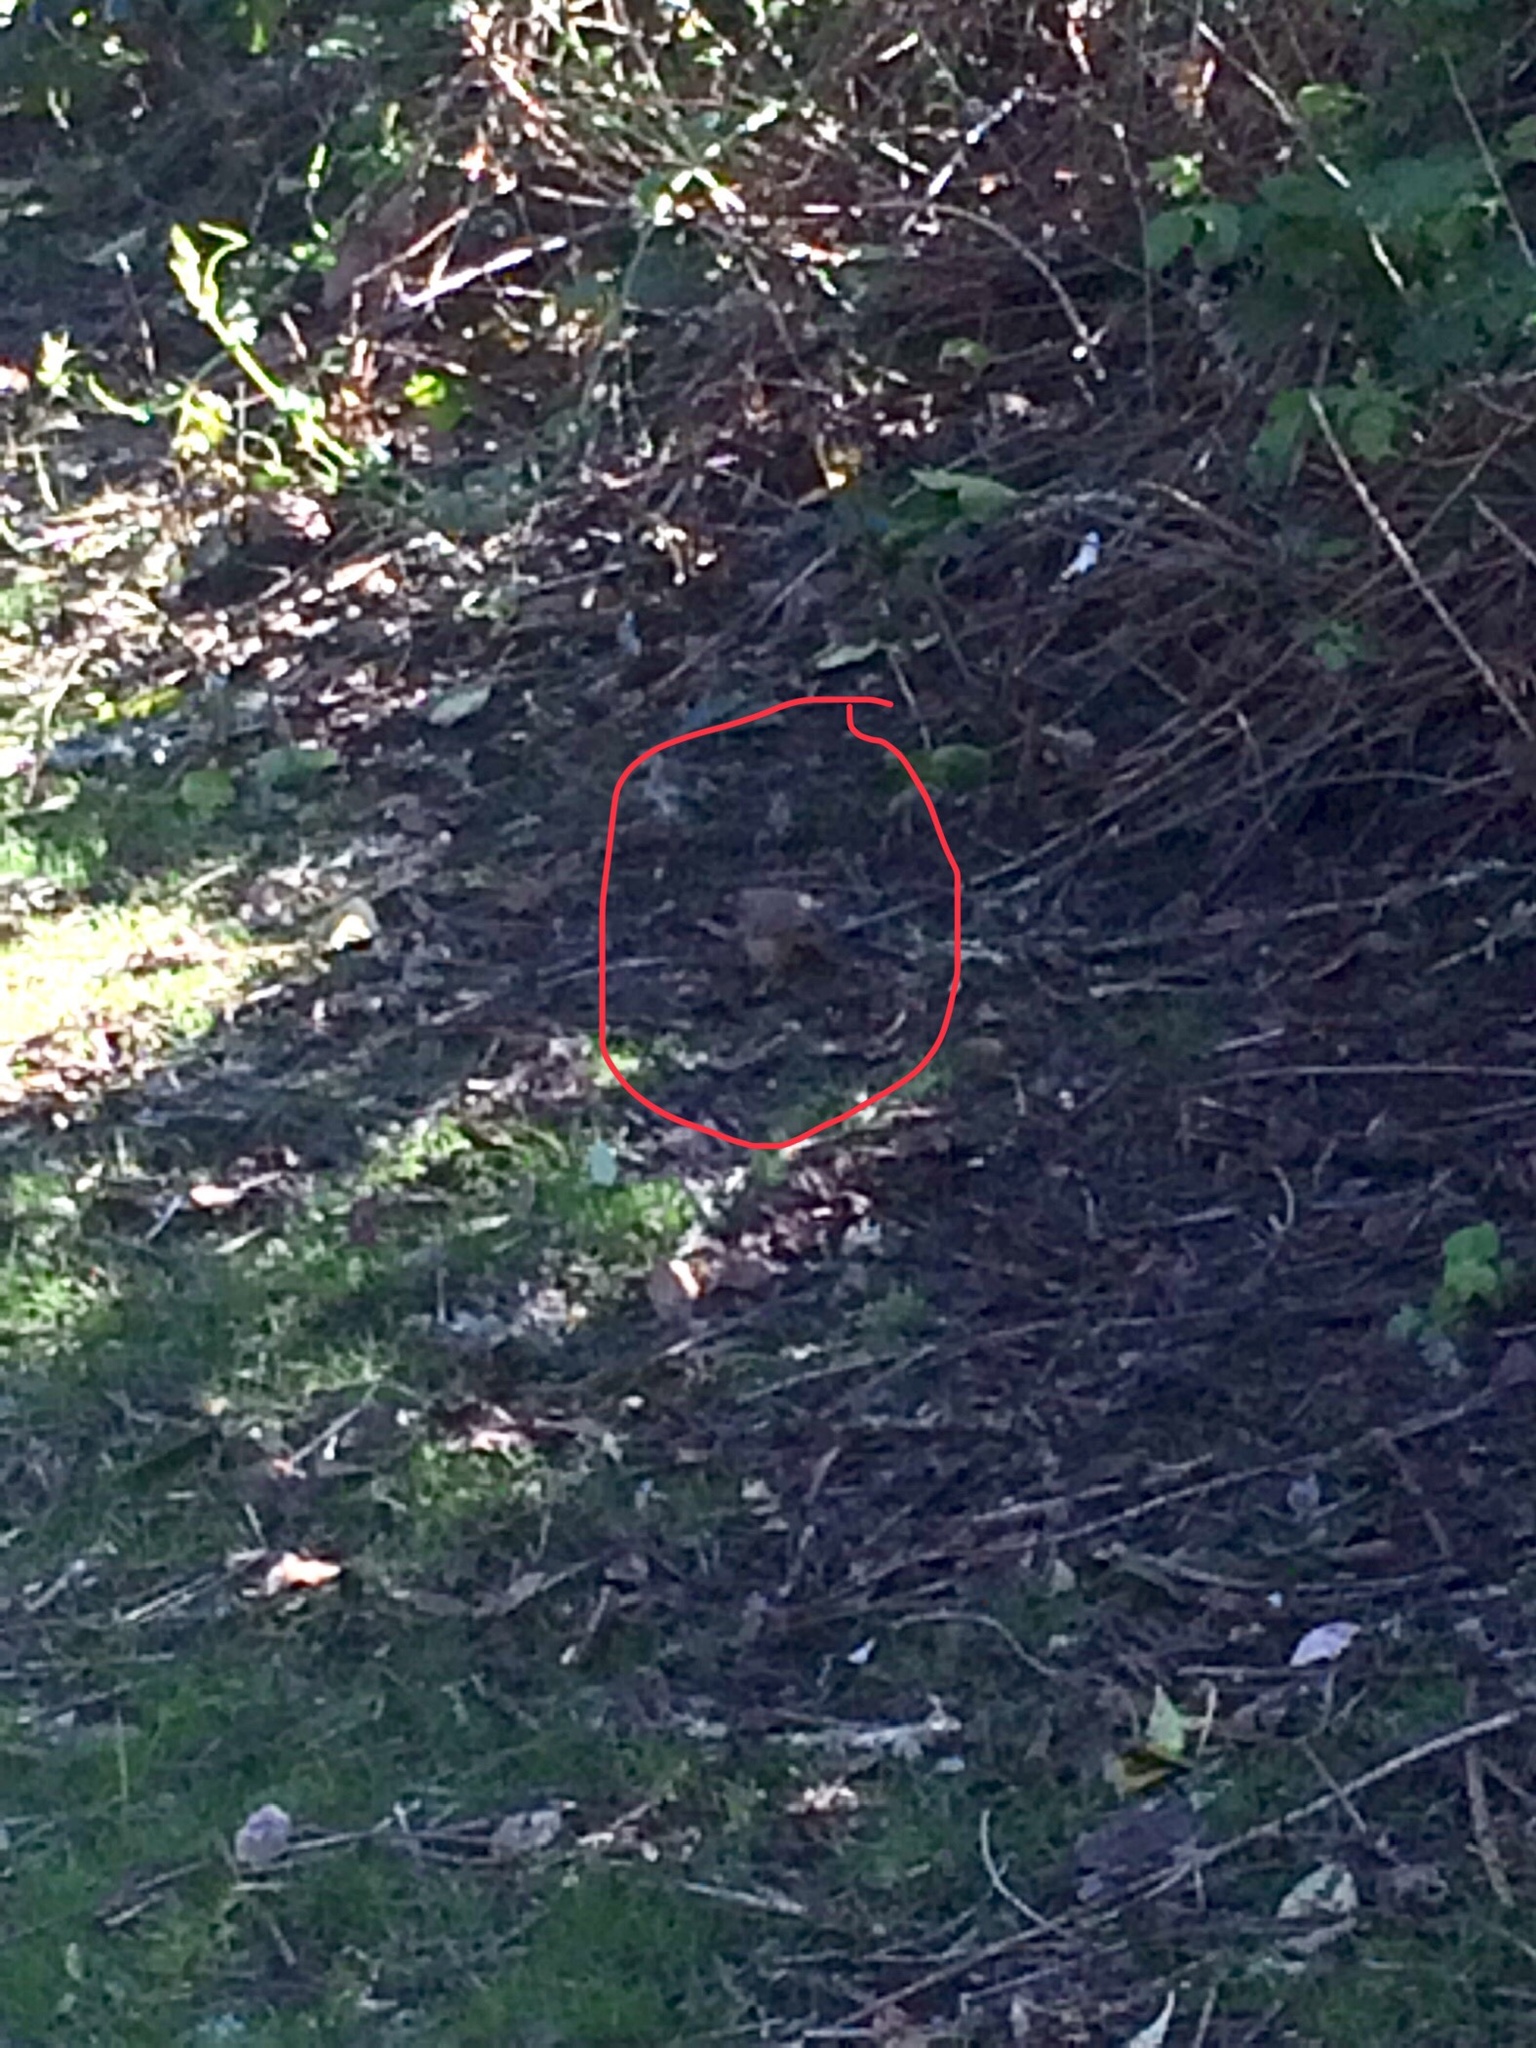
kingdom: Animalia
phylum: Chordata
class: Aves
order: Passeriformes
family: Passerellidae
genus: Melozone
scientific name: Melozone crissalis
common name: California towhee
